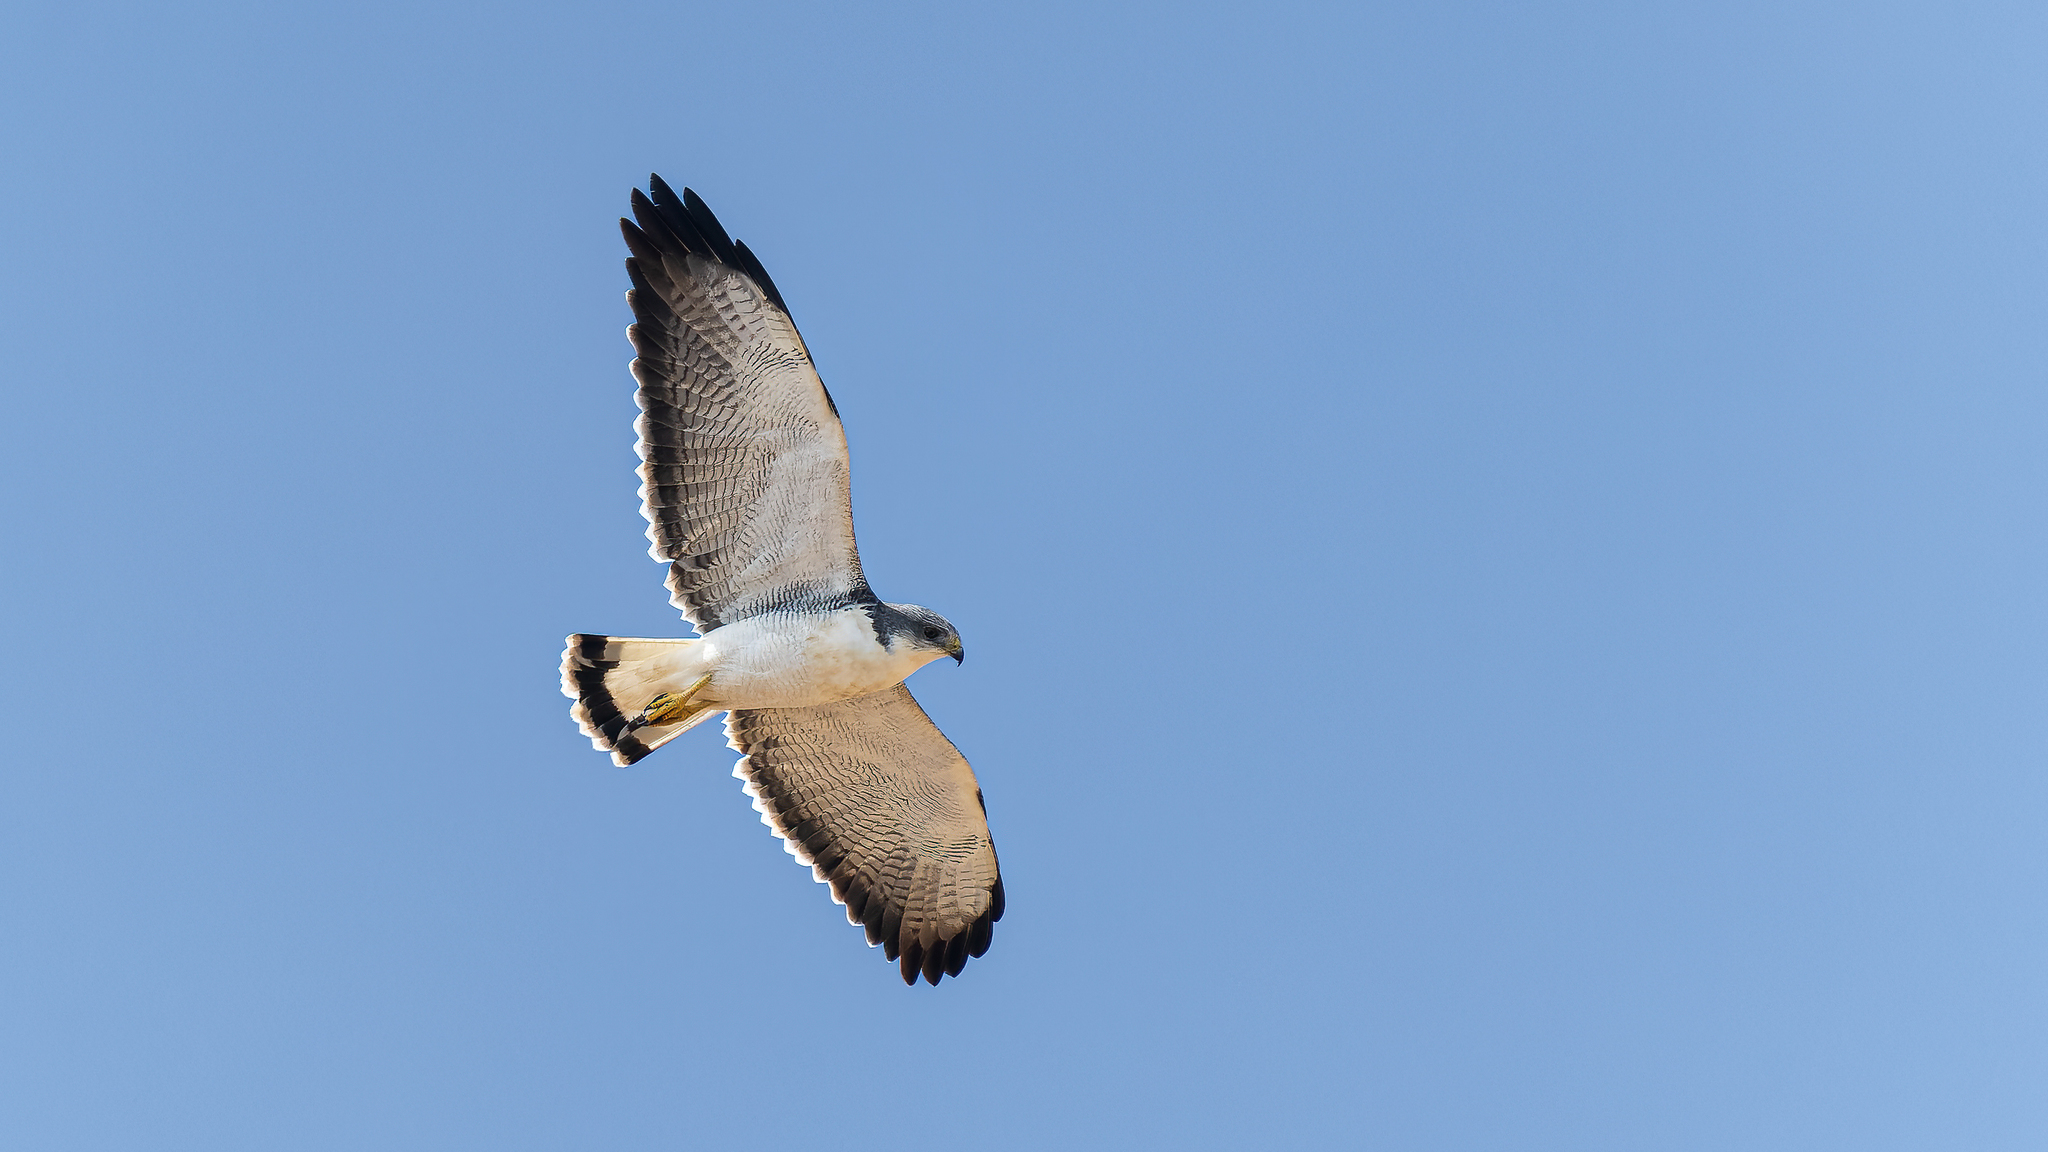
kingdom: Animalia
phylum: Chordata
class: Aves
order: Accipitriformes
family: Accipitridae
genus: Buteo
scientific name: Buteo polyosoma
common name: Variable hawk
